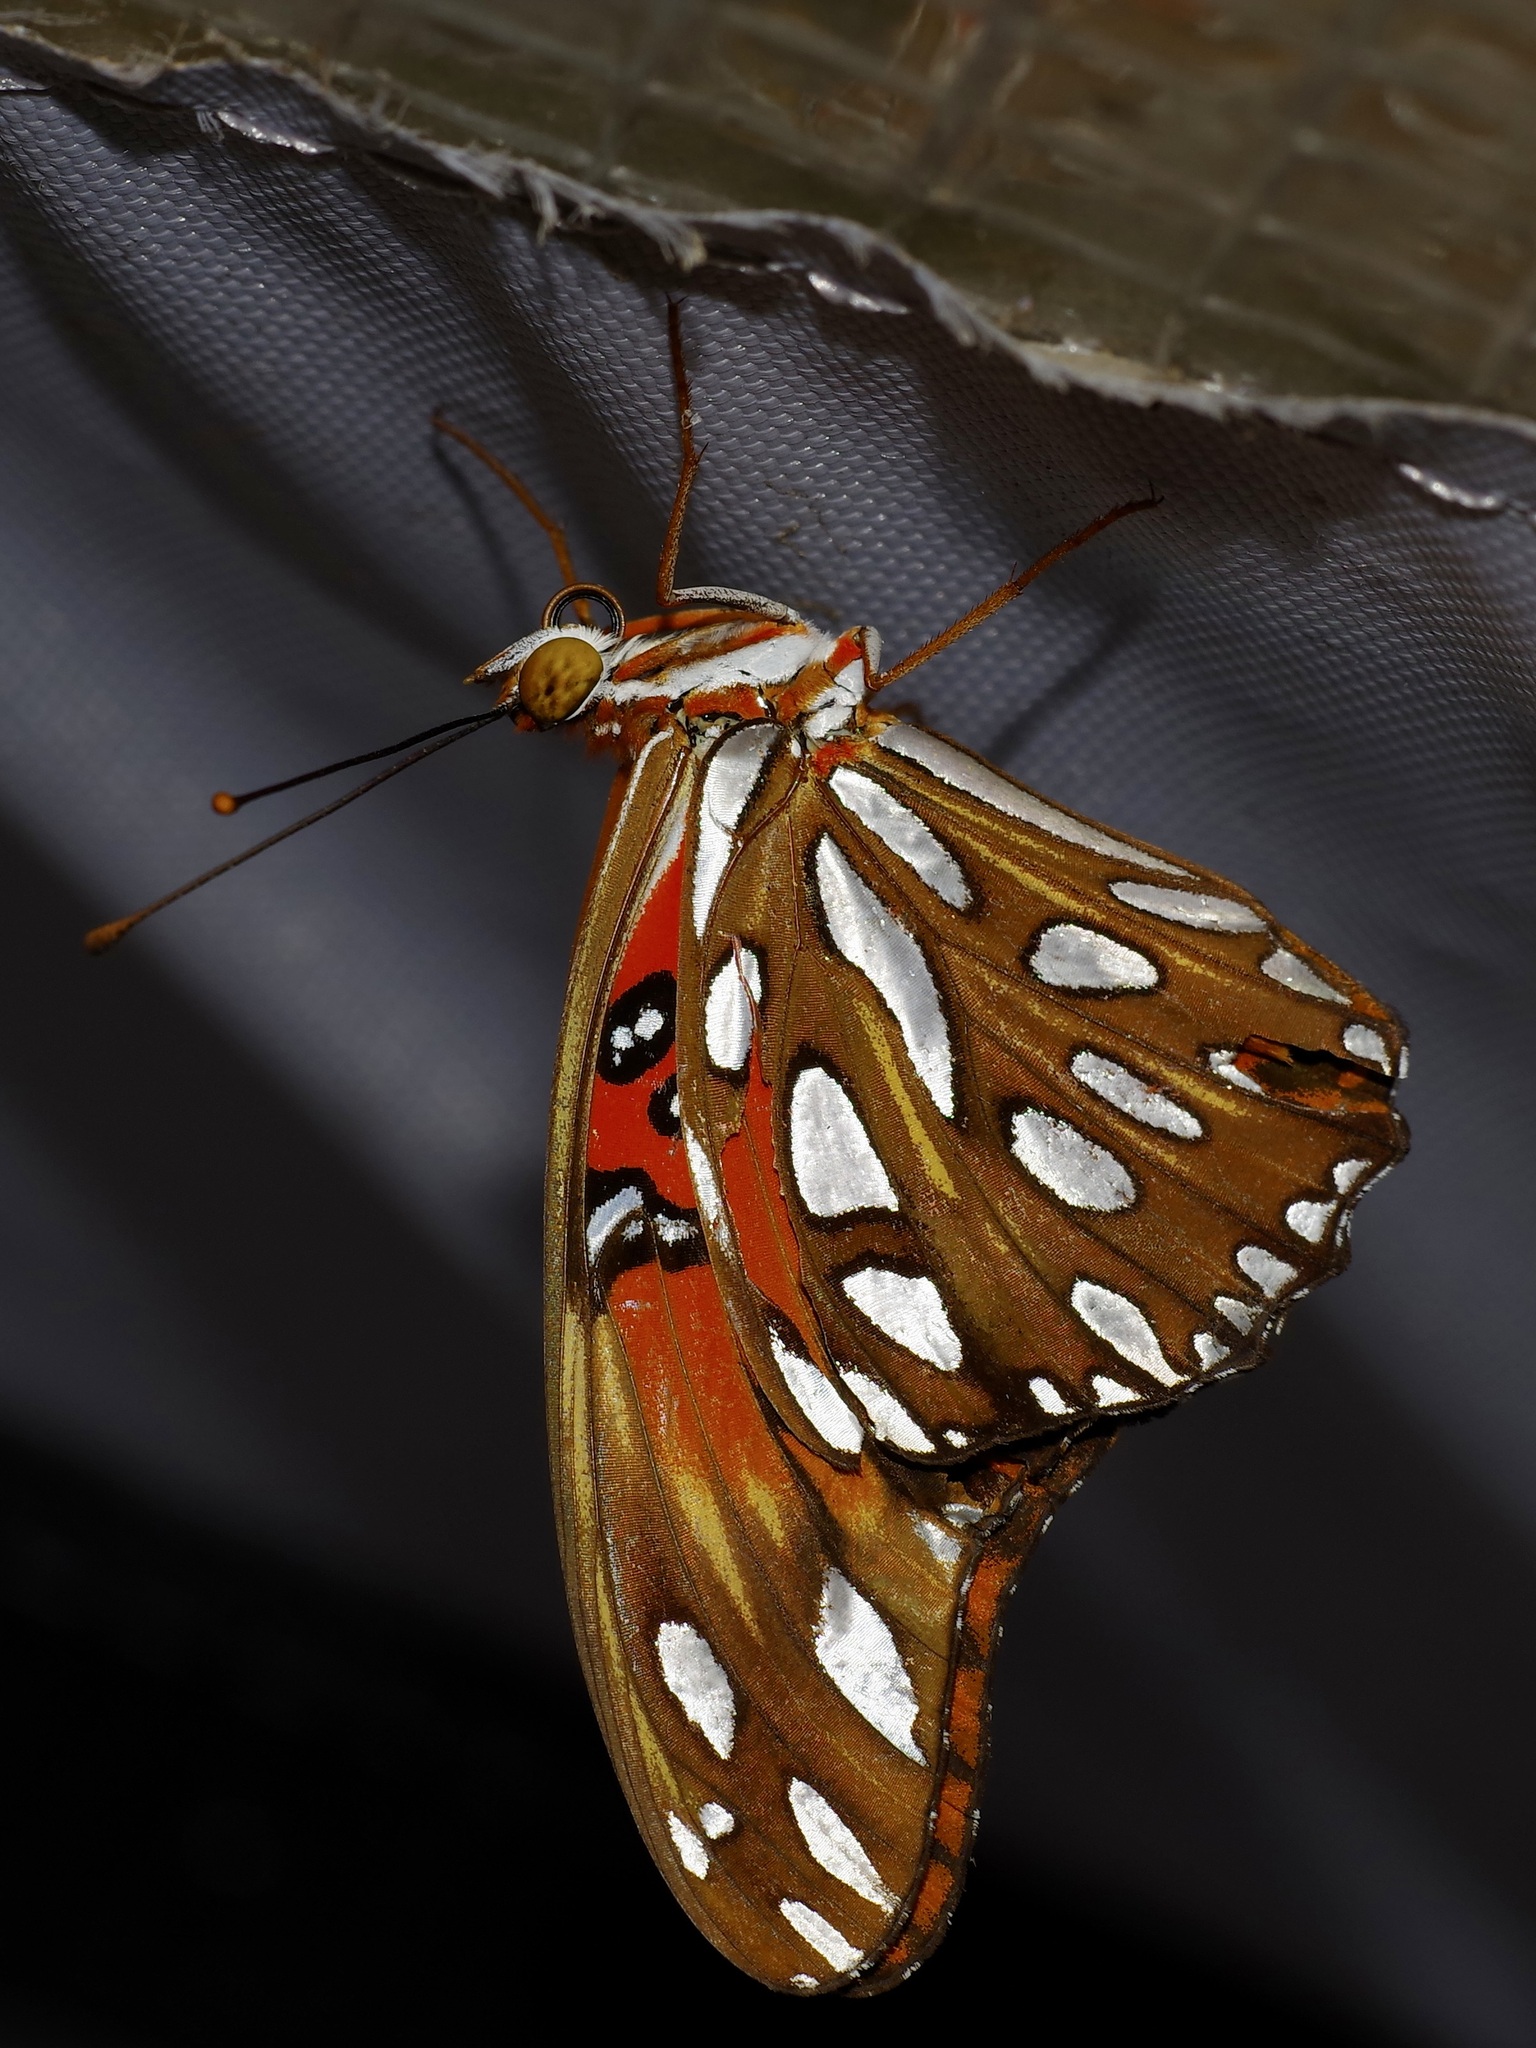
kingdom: Animalia
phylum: Arthropoda
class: Insecta
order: Lepidoptera
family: Nymphalidae
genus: Dione
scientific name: Dione vanillae
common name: Gulf fritillary
